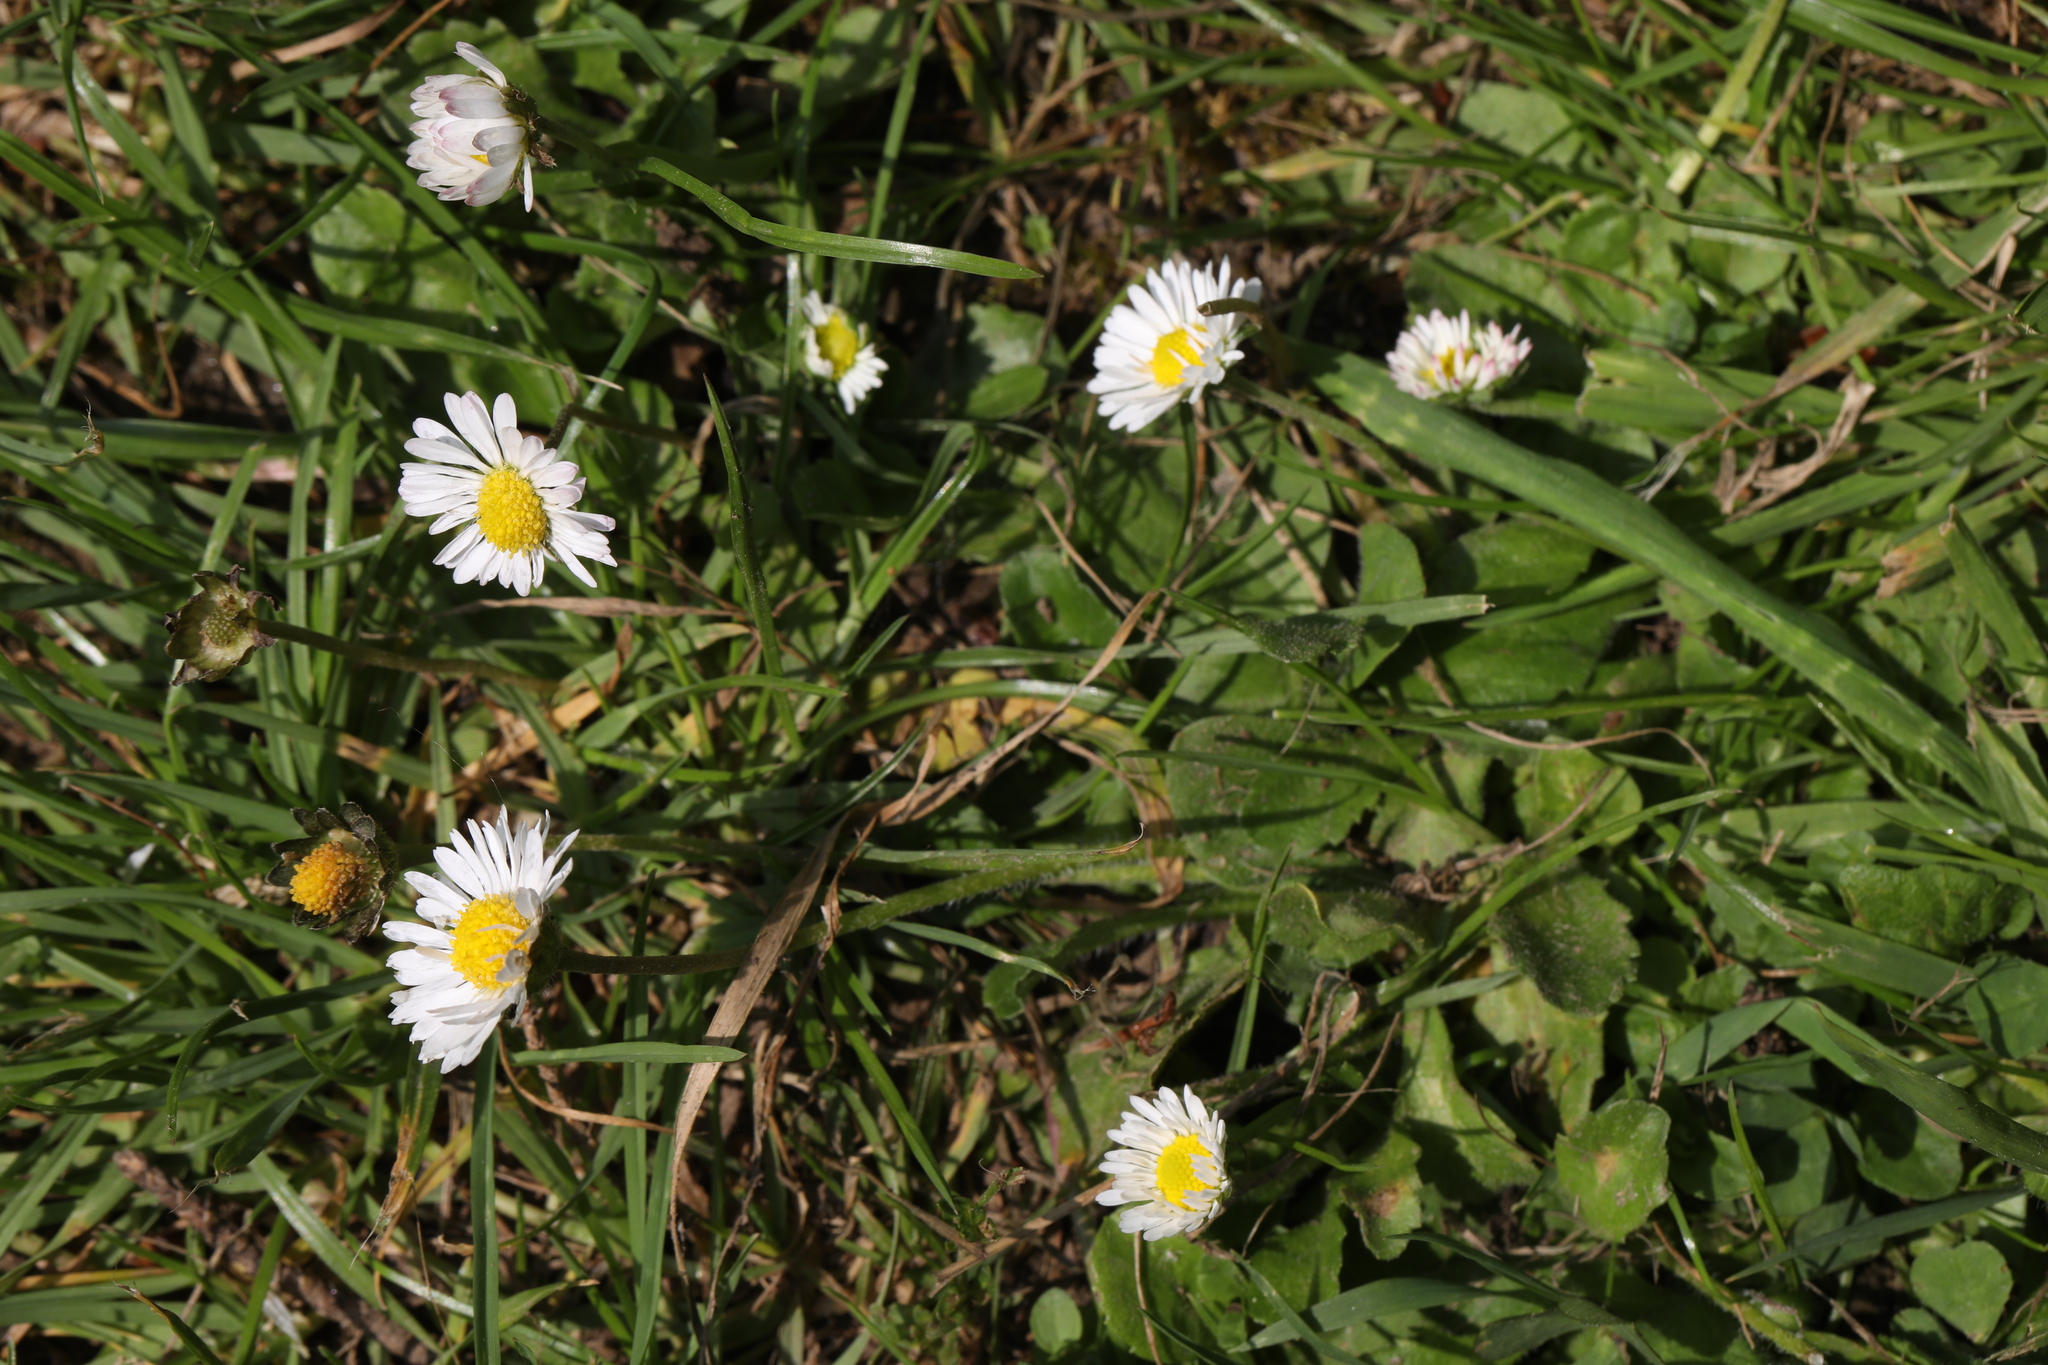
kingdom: Plantae
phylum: Tracheophyta
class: Magnoliopsida
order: Asterales
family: Asteraceae
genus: Bellis
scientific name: Bellis perennis
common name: Lawndaisy
